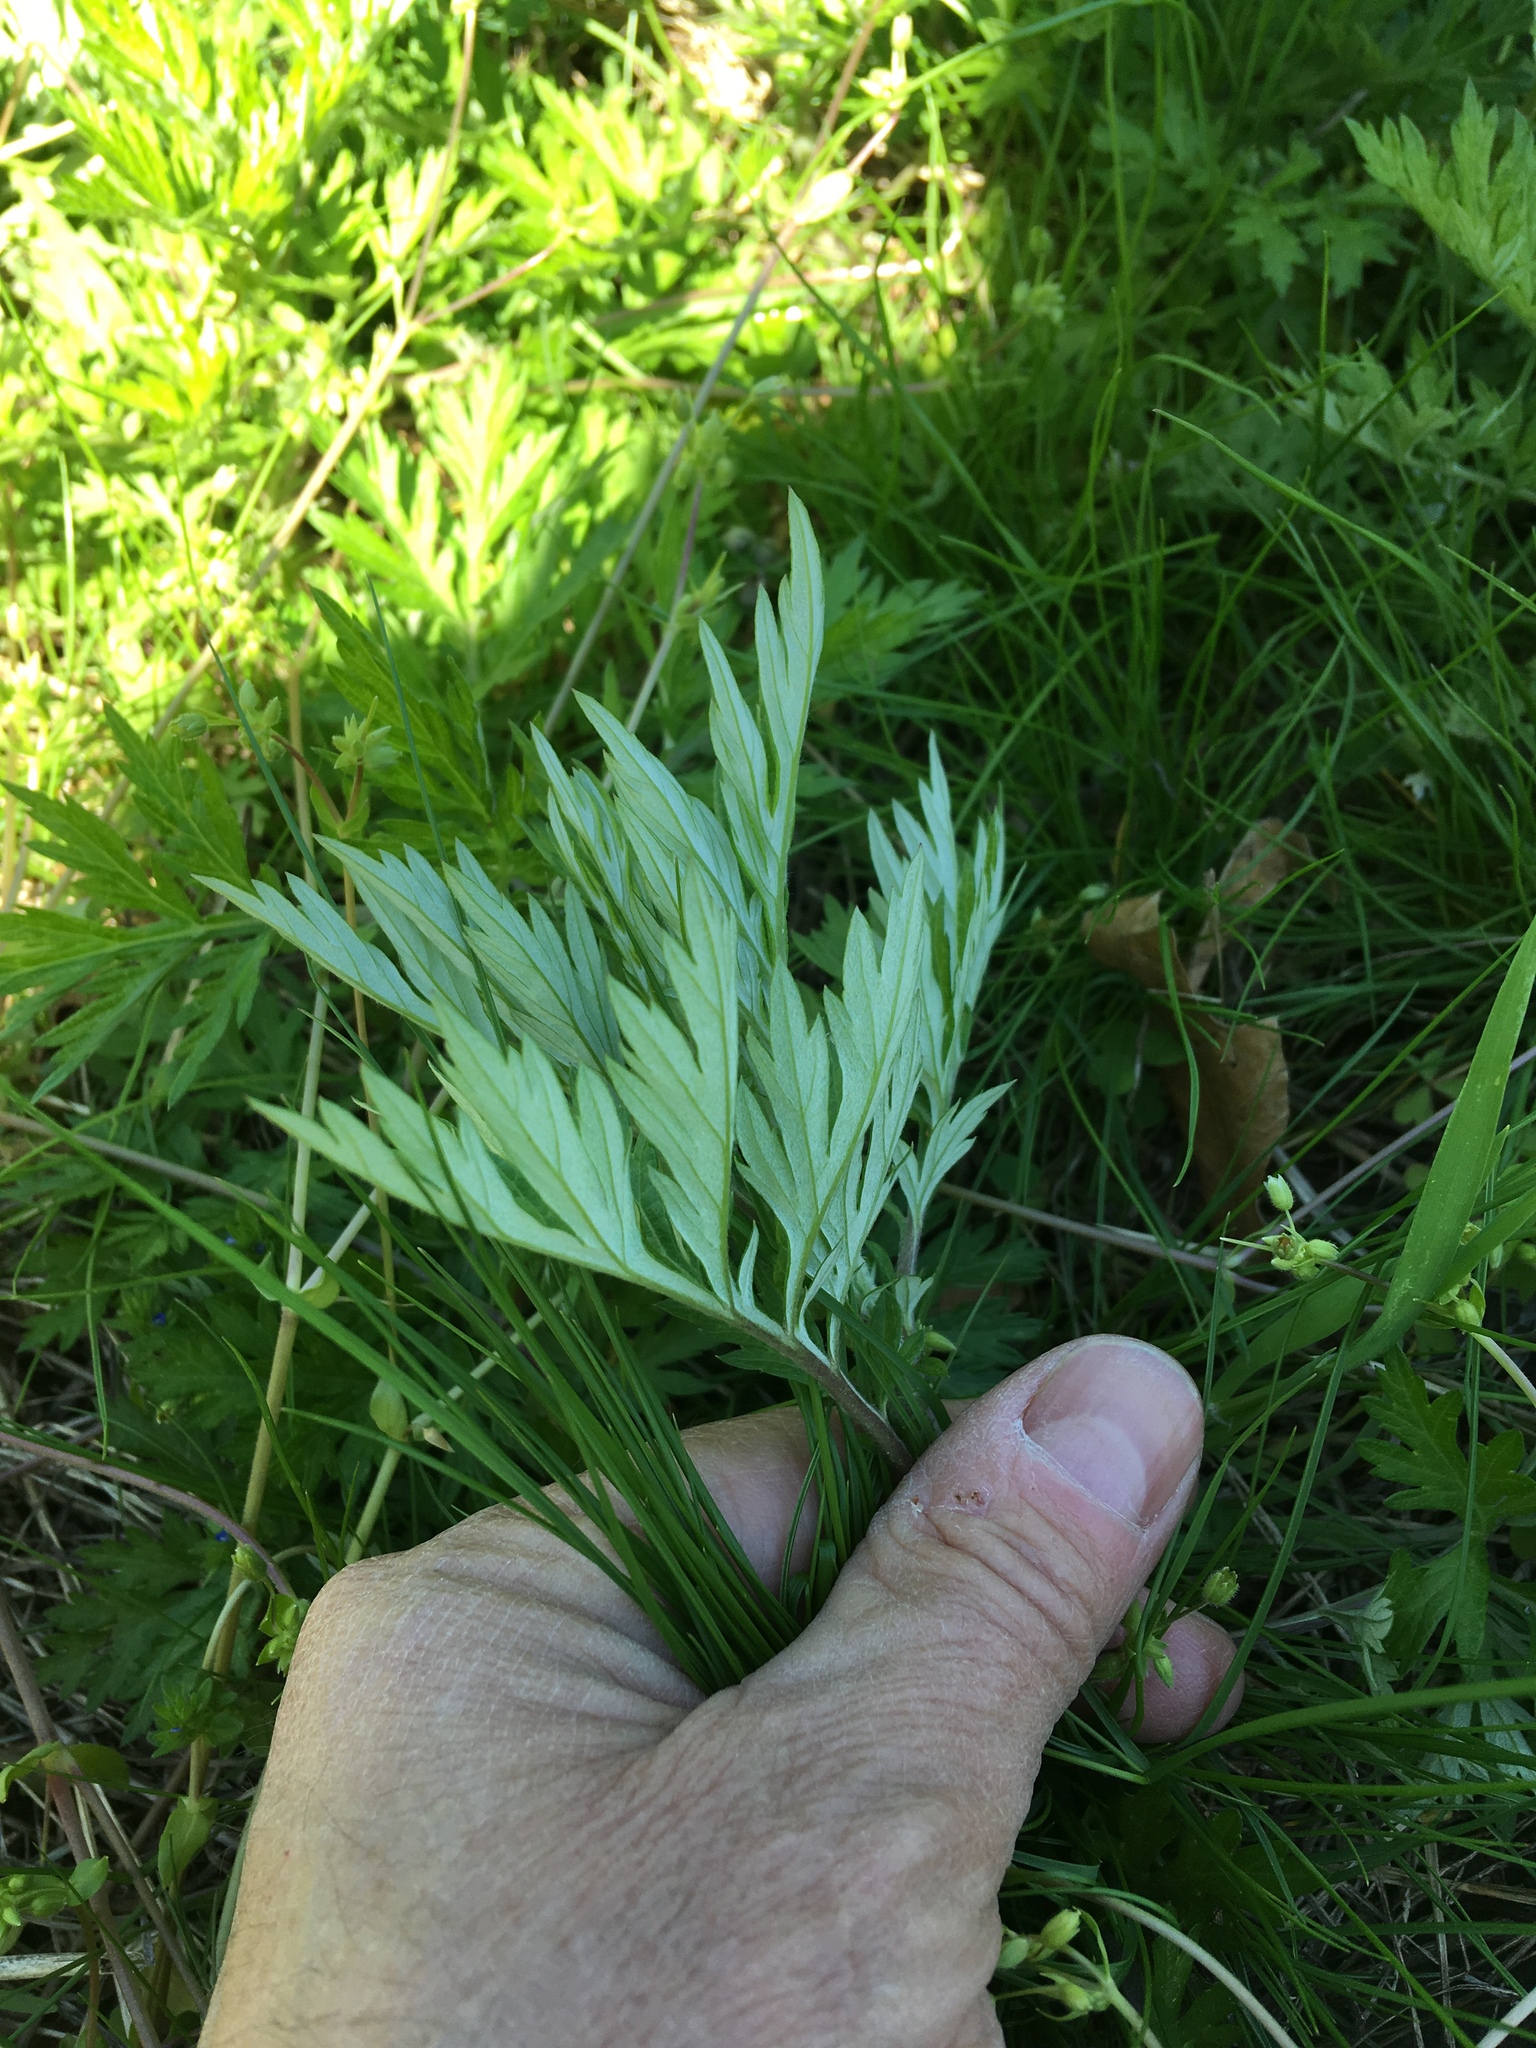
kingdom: Plantae
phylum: Tracheophyta
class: Magnoliopsida
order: Asterales
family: Asteraceae
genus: Artemisia
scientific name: Artemisia vulgaris
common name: Mugwort
